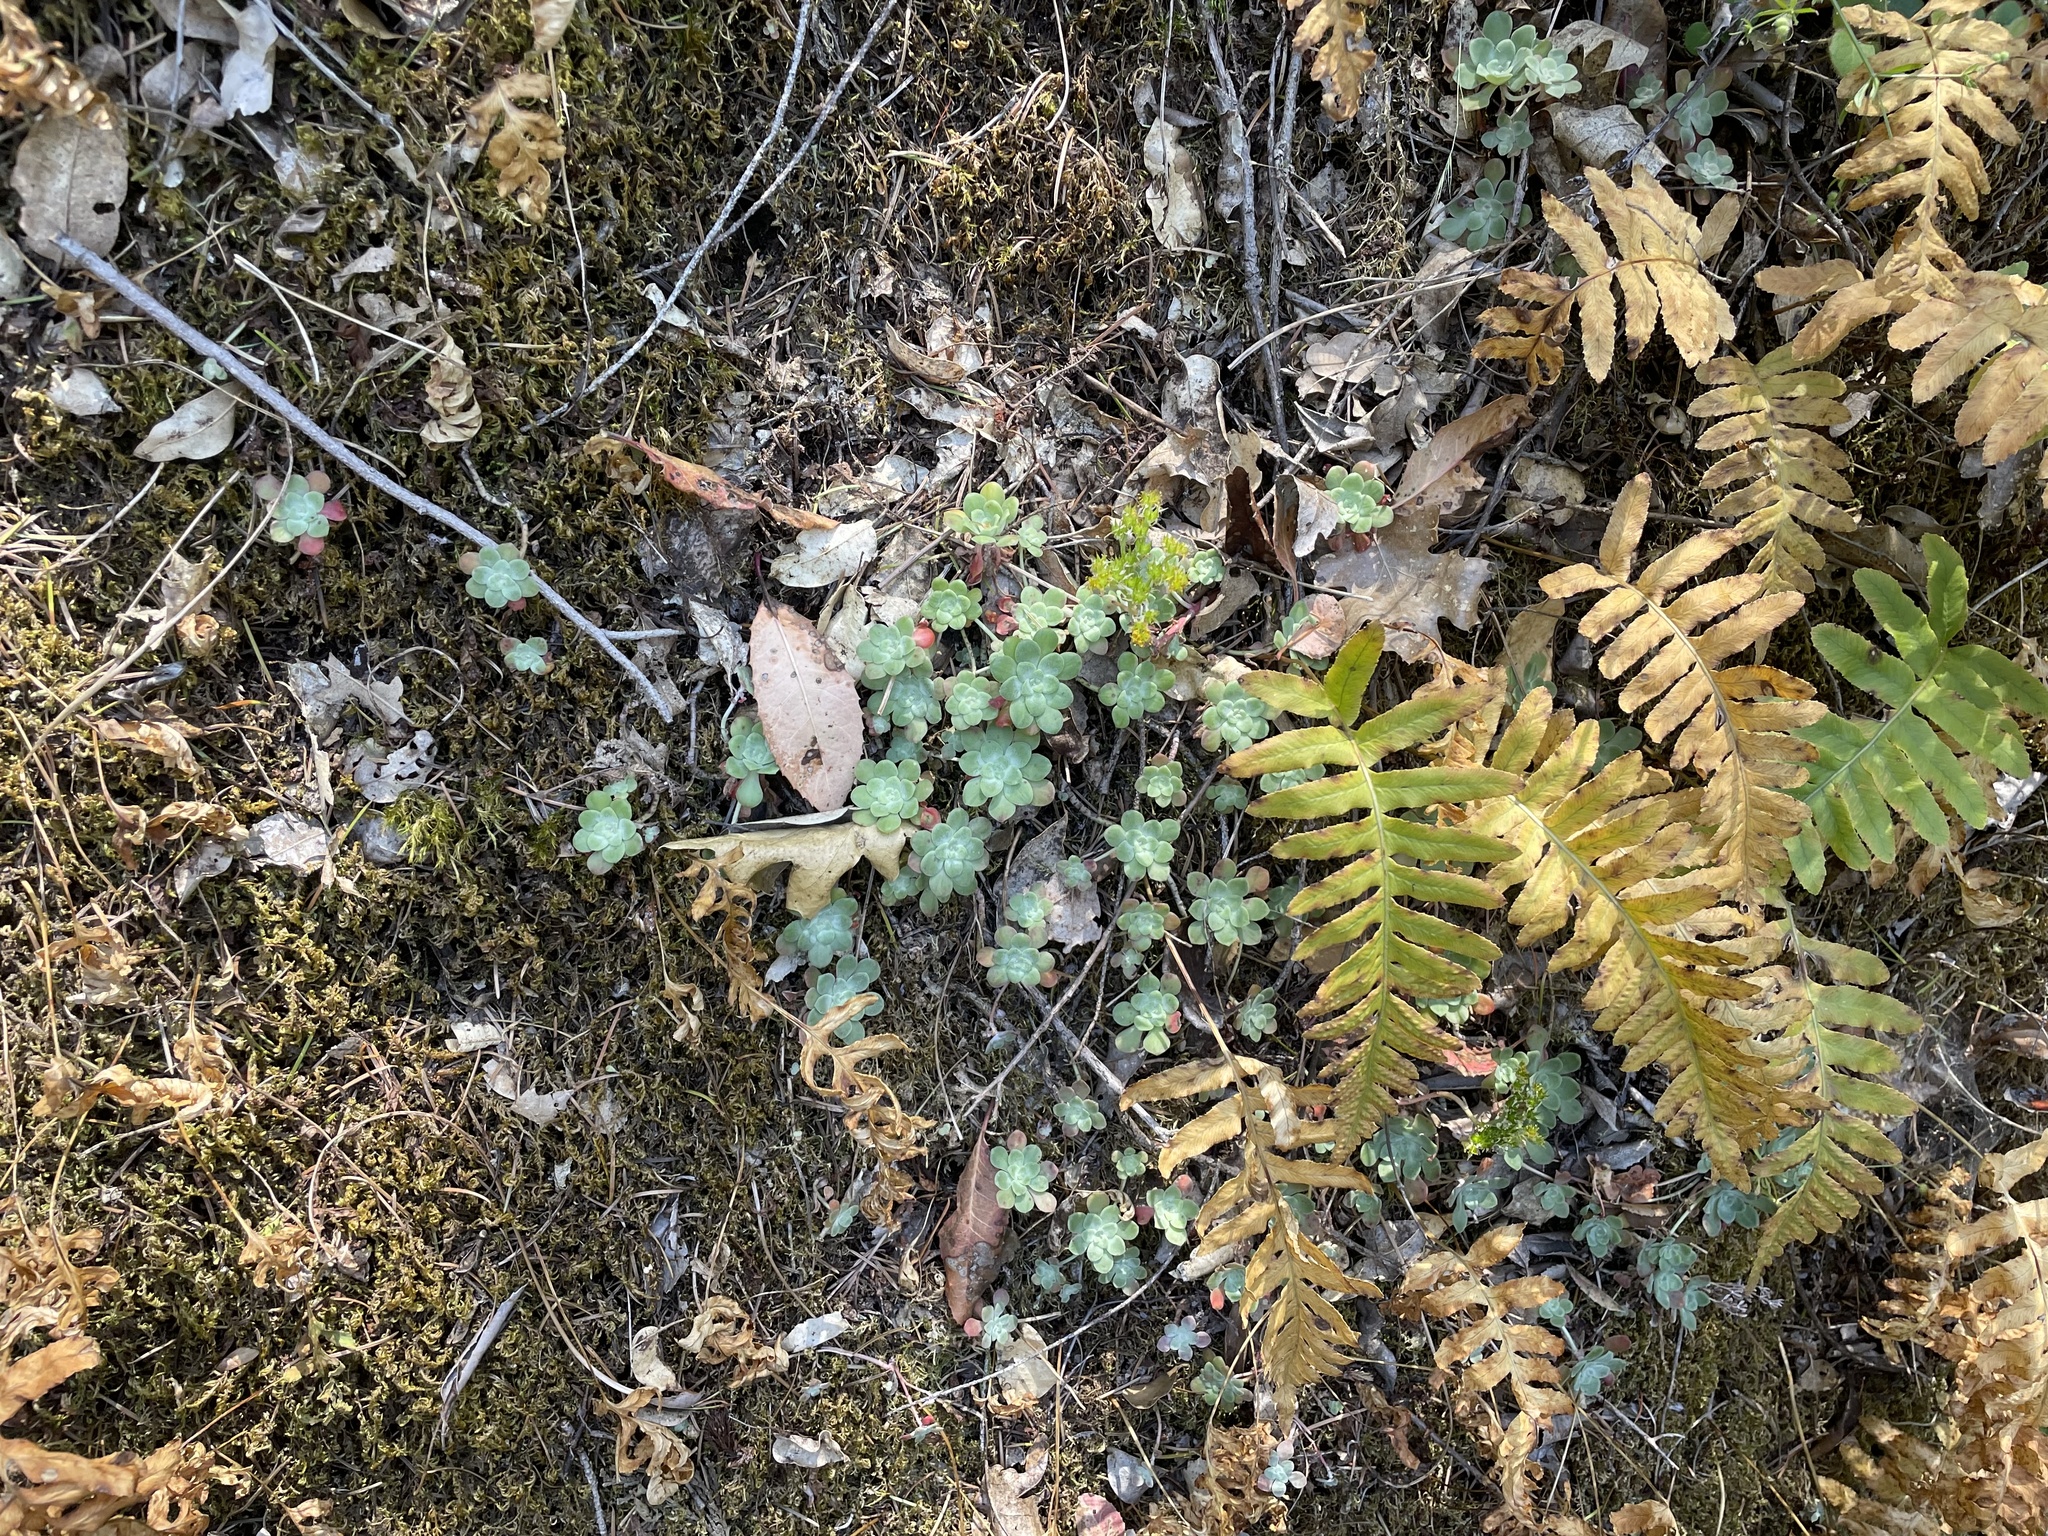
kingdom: Plantae
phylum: Tracheophyta
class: Magnoliopsida
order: Saxifragales
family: Crassulaceae
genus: Sedum
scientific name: Sedum spathulifolium
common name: Colorado stonecrop
